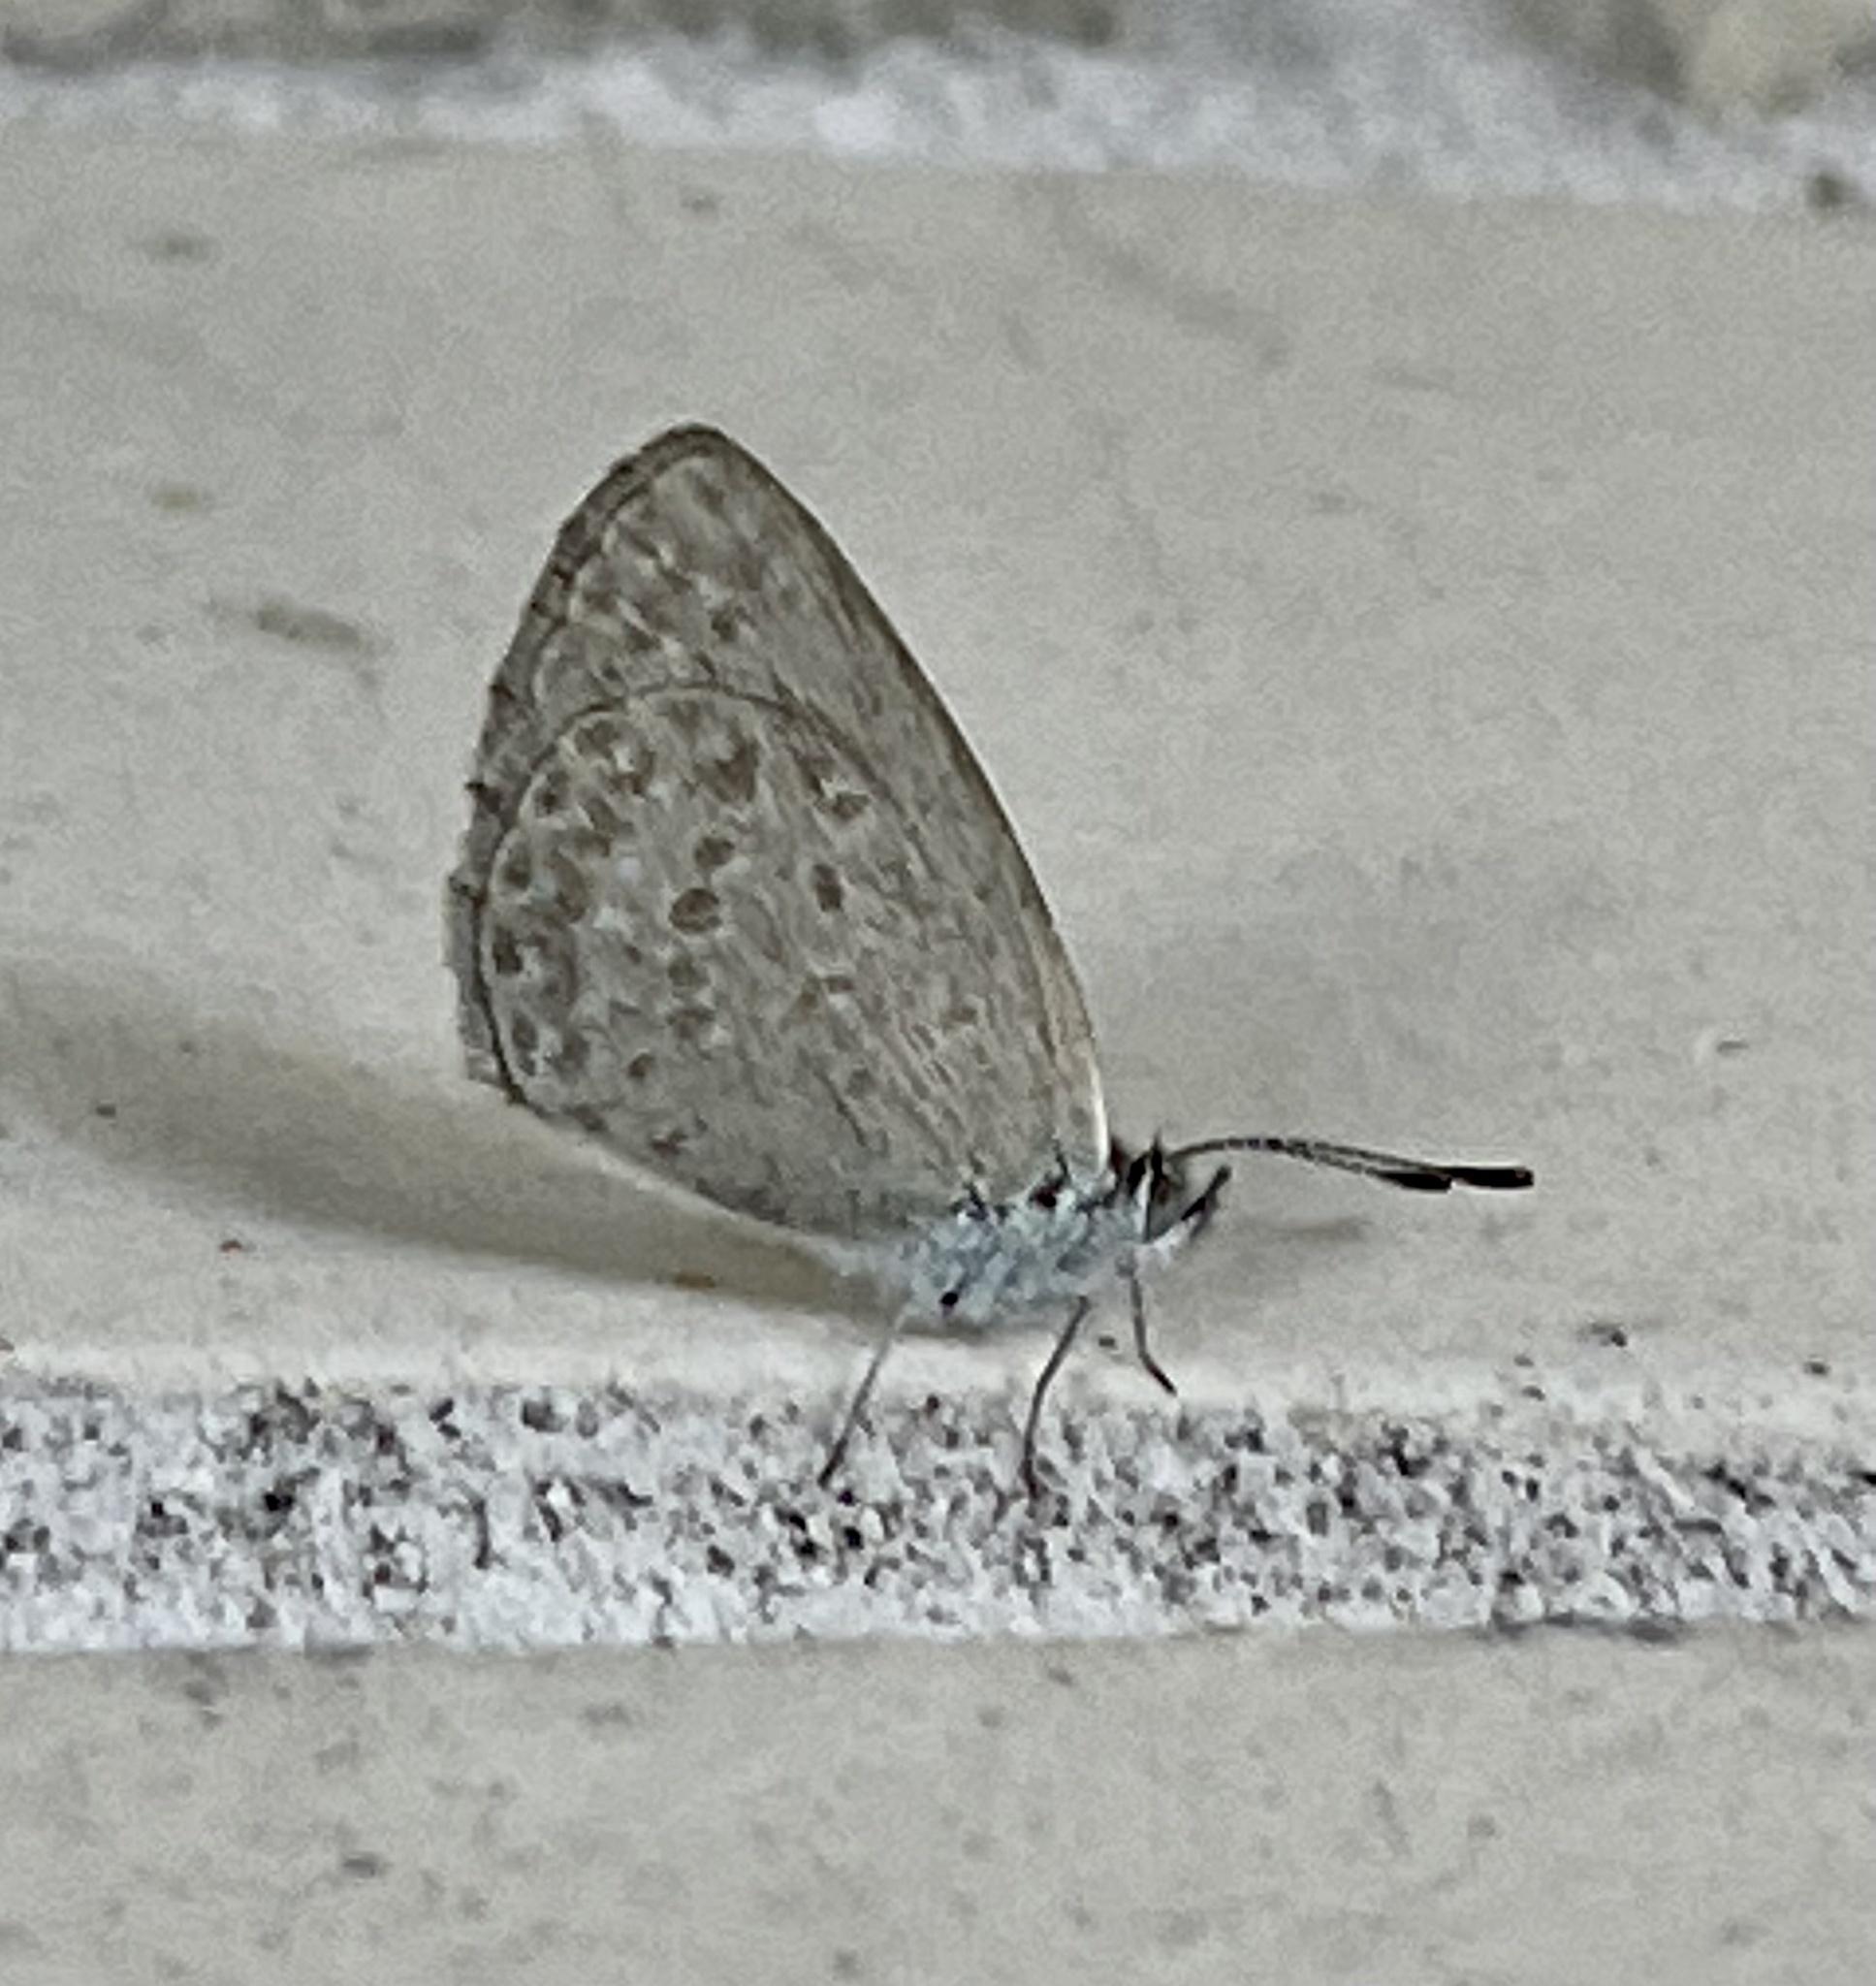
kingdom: Animalia
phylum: Arthropoda
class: Insecta
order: Lepidoptera
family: Lycaenidae
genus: Zizina
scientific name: Zizina otis
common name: Lesser grass blue
